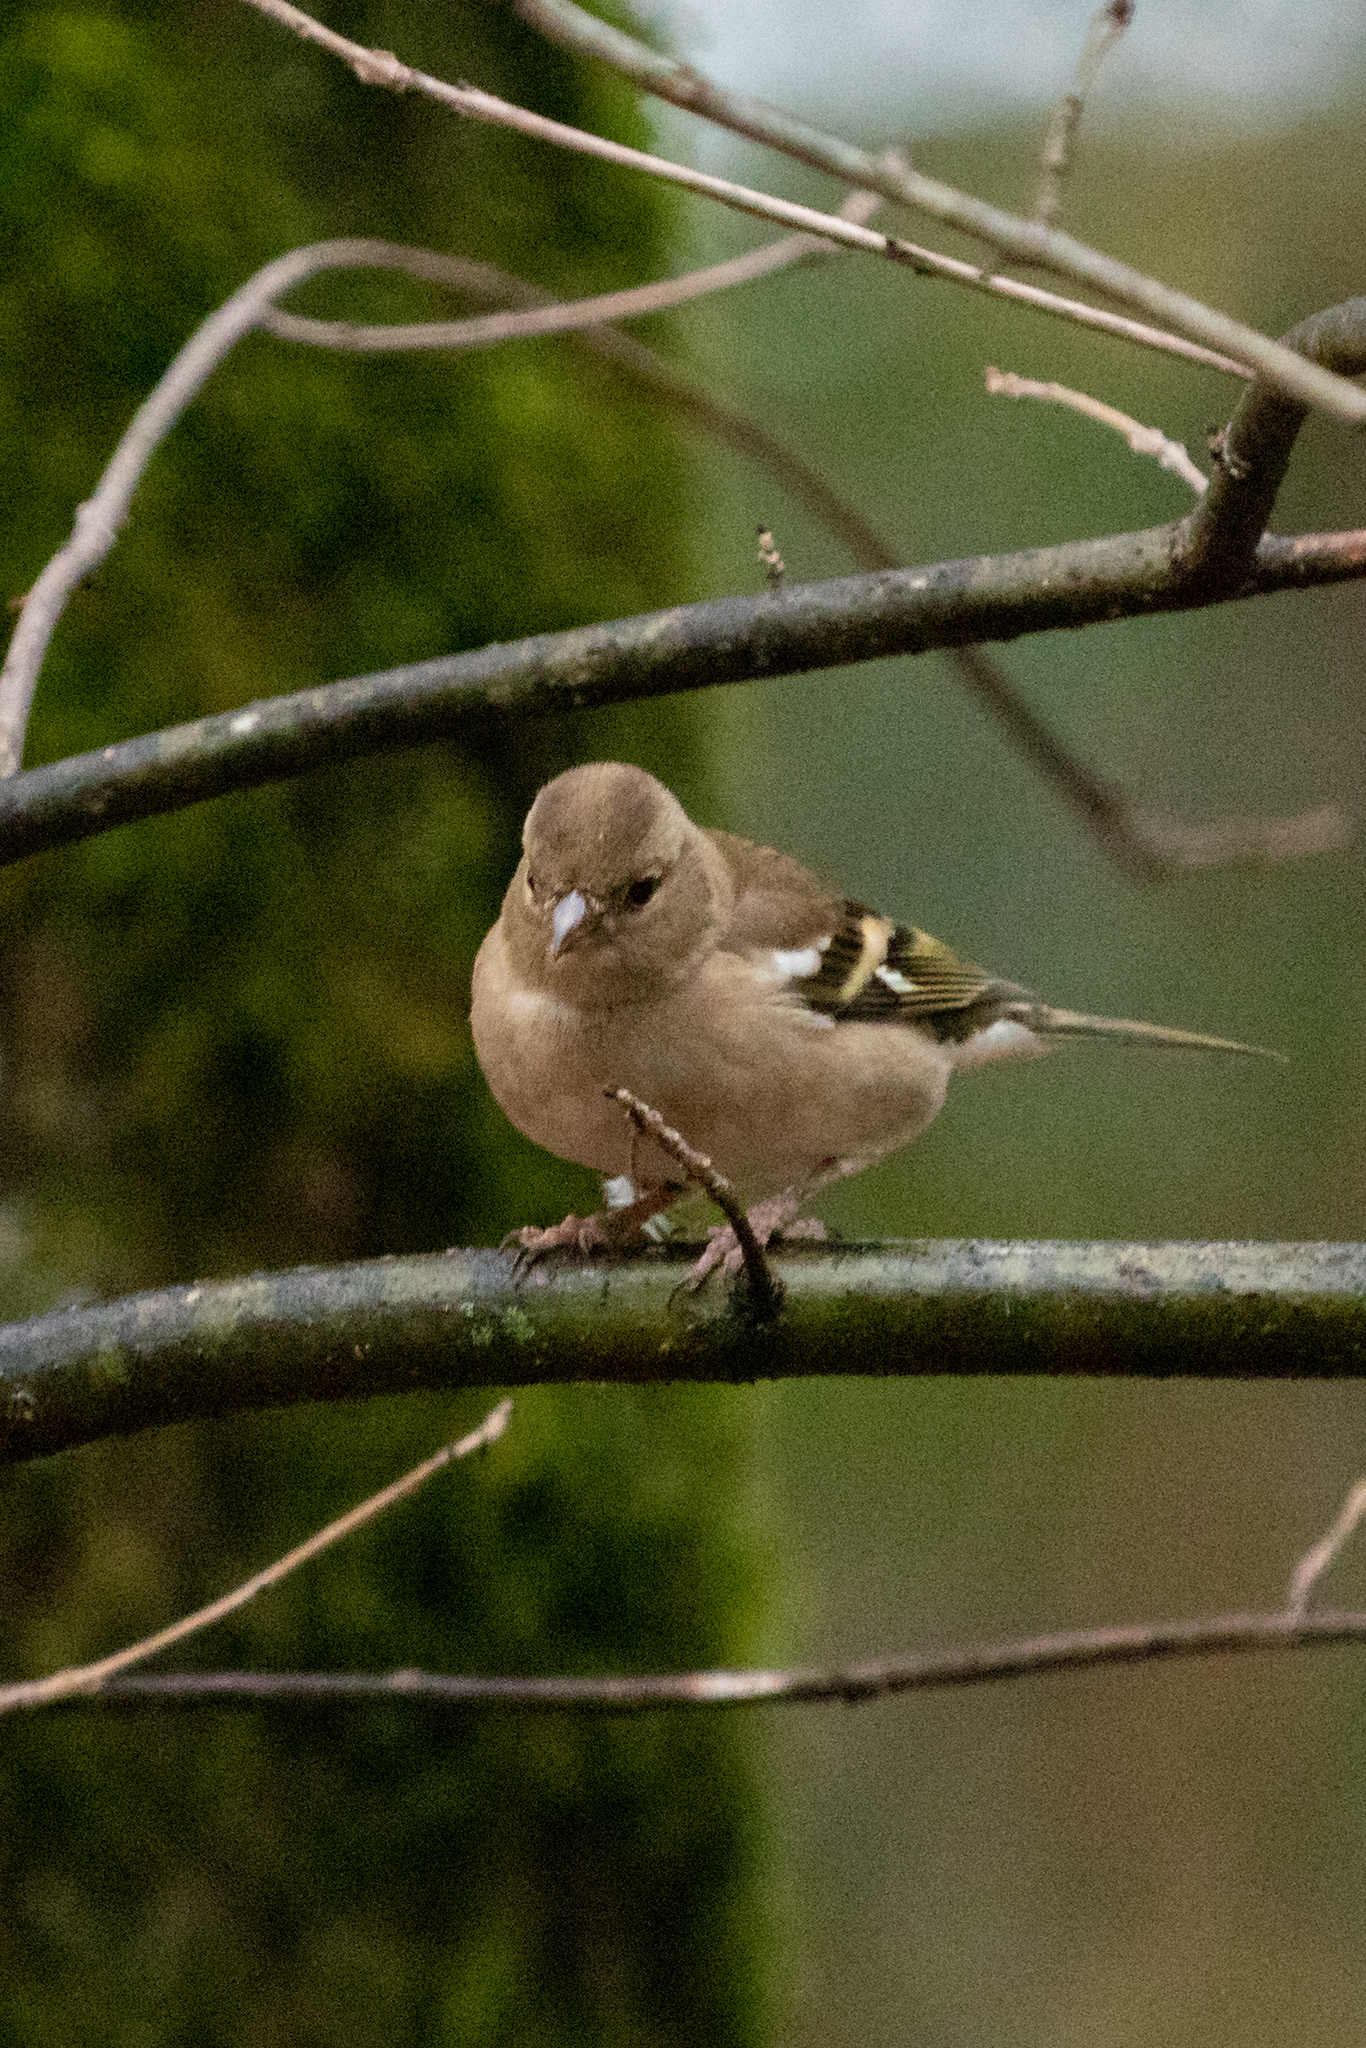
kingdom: Animalia
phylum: Chordata
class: Aves
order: Passeriformes
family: Fringillidae
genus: Fringilla
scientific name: Fringilla coelebs
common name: Common chaffinch
